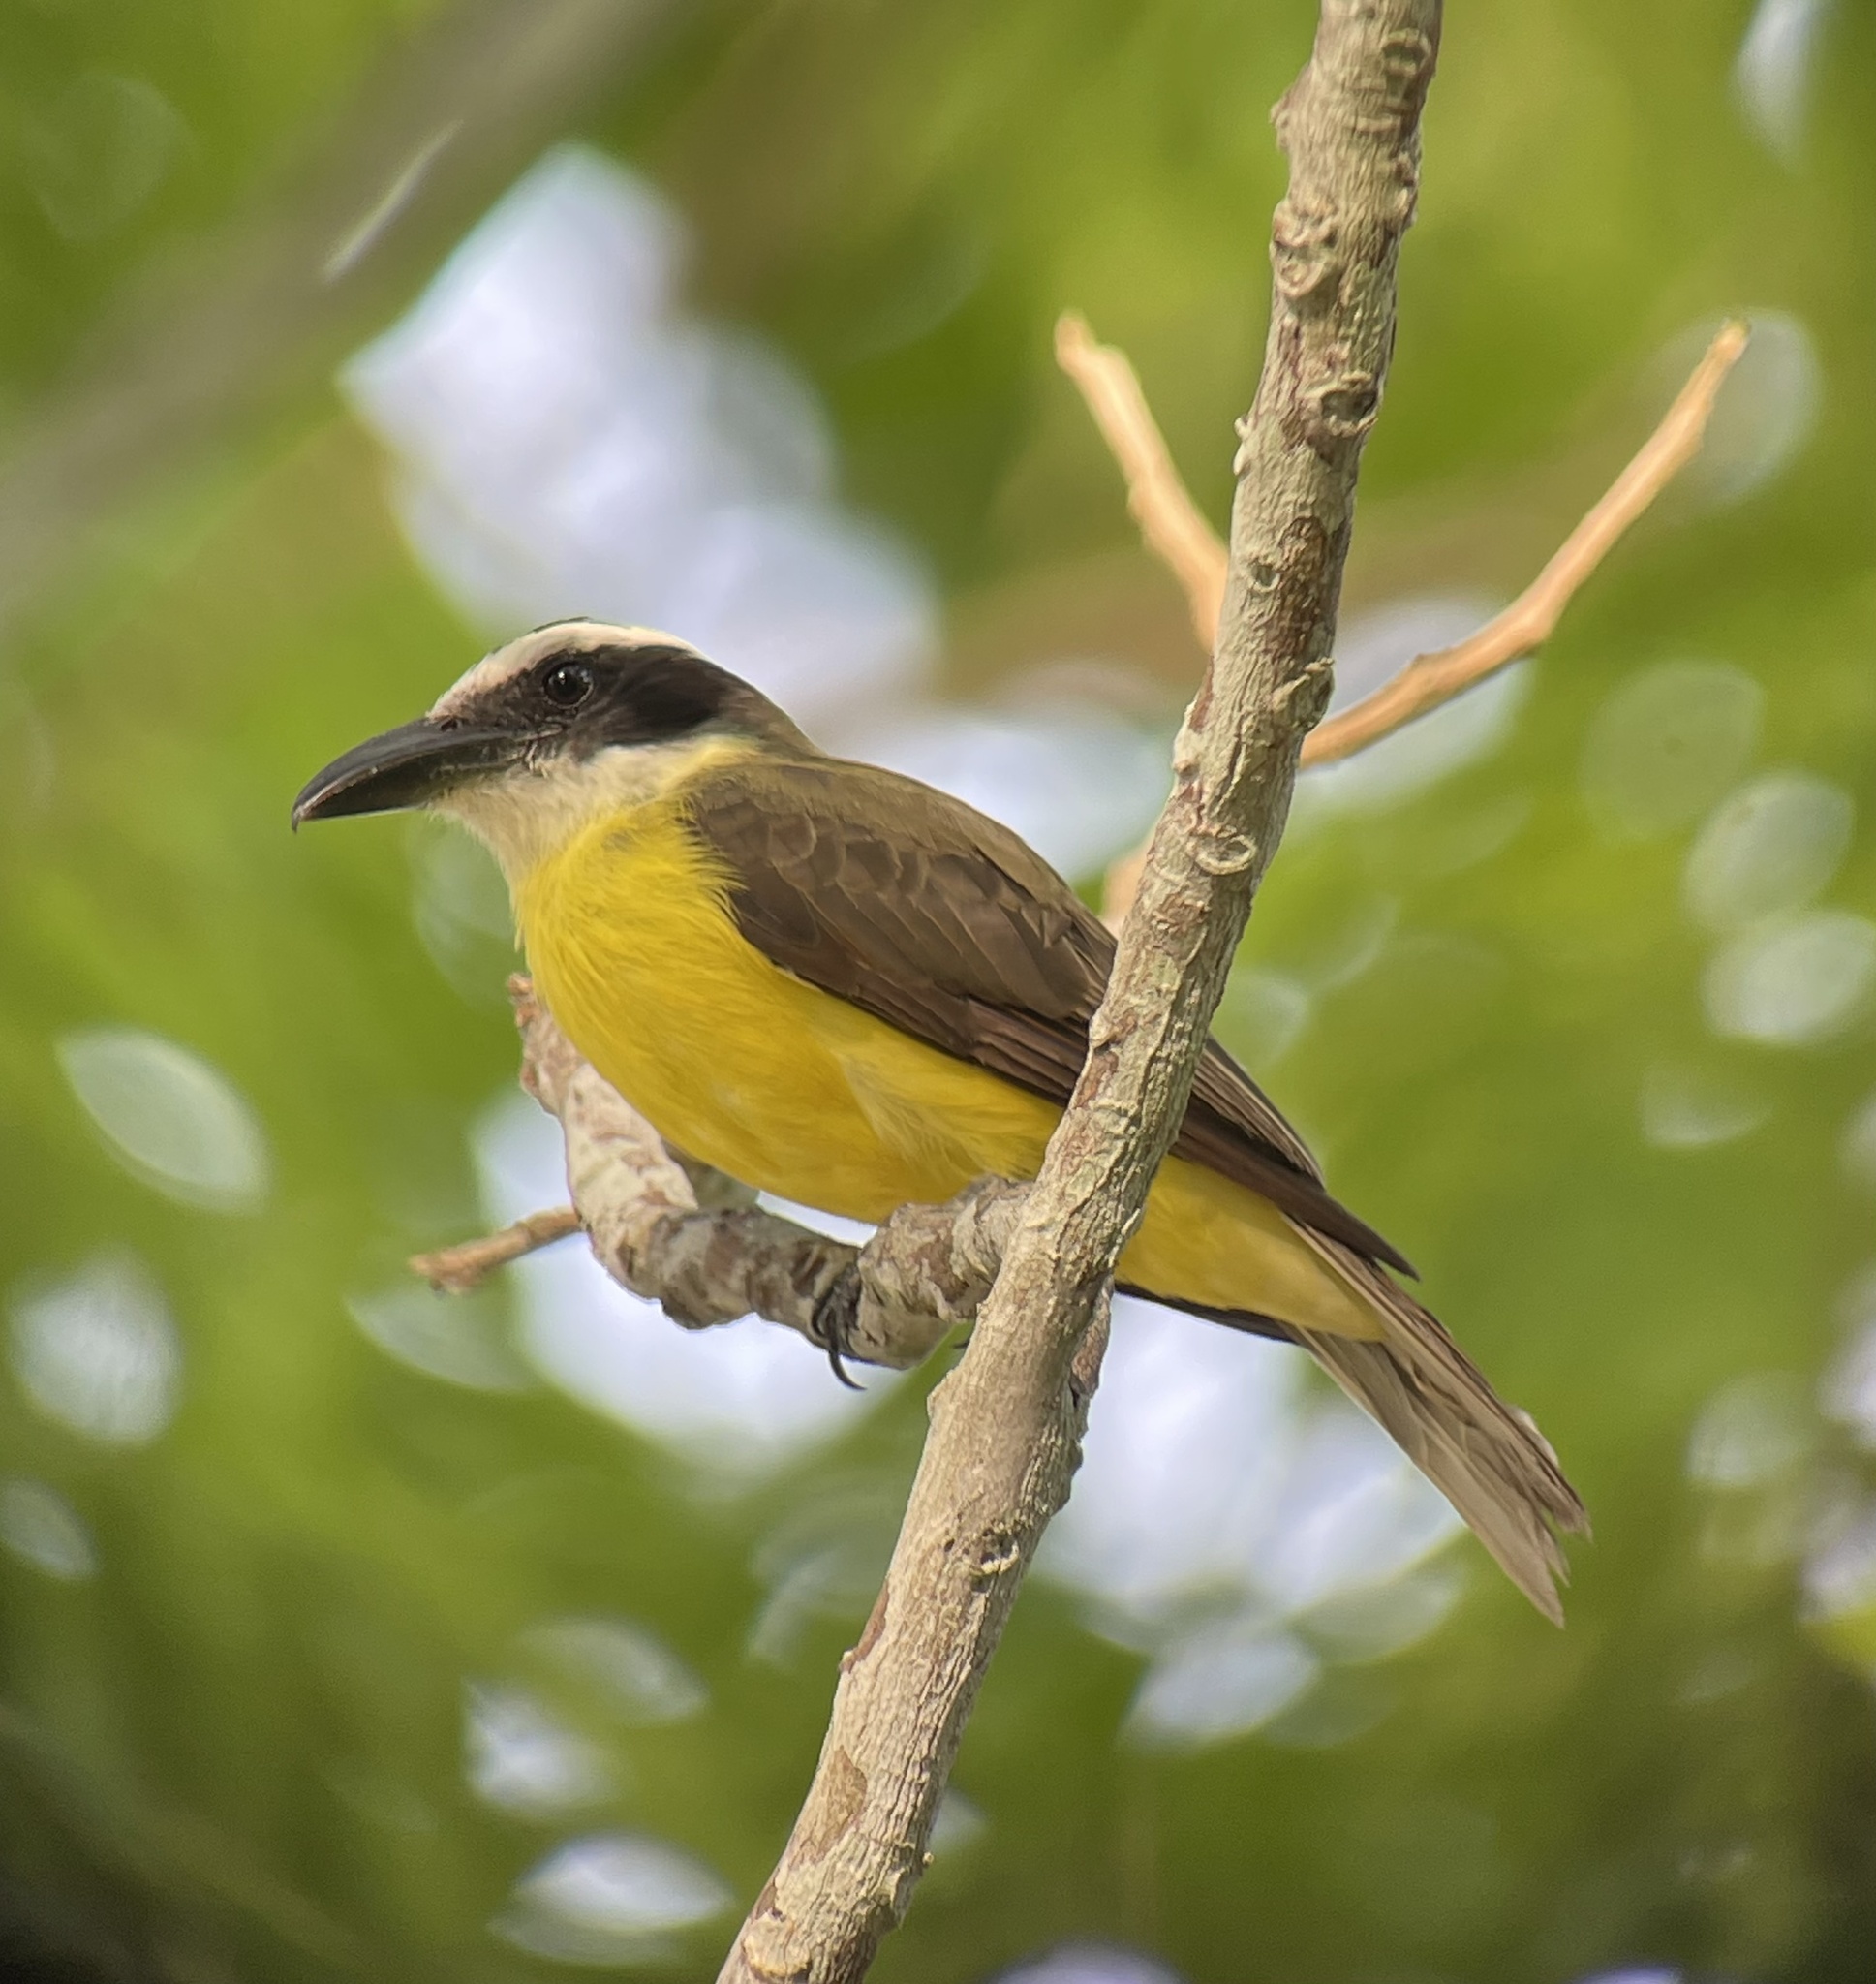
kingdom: Animalia
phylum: Chordata
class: Aves
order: Passeriformes
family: Tyrannidae
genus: Megarynchus
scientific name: Megarynchus pitangua
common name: Boat-billed flycatcher
